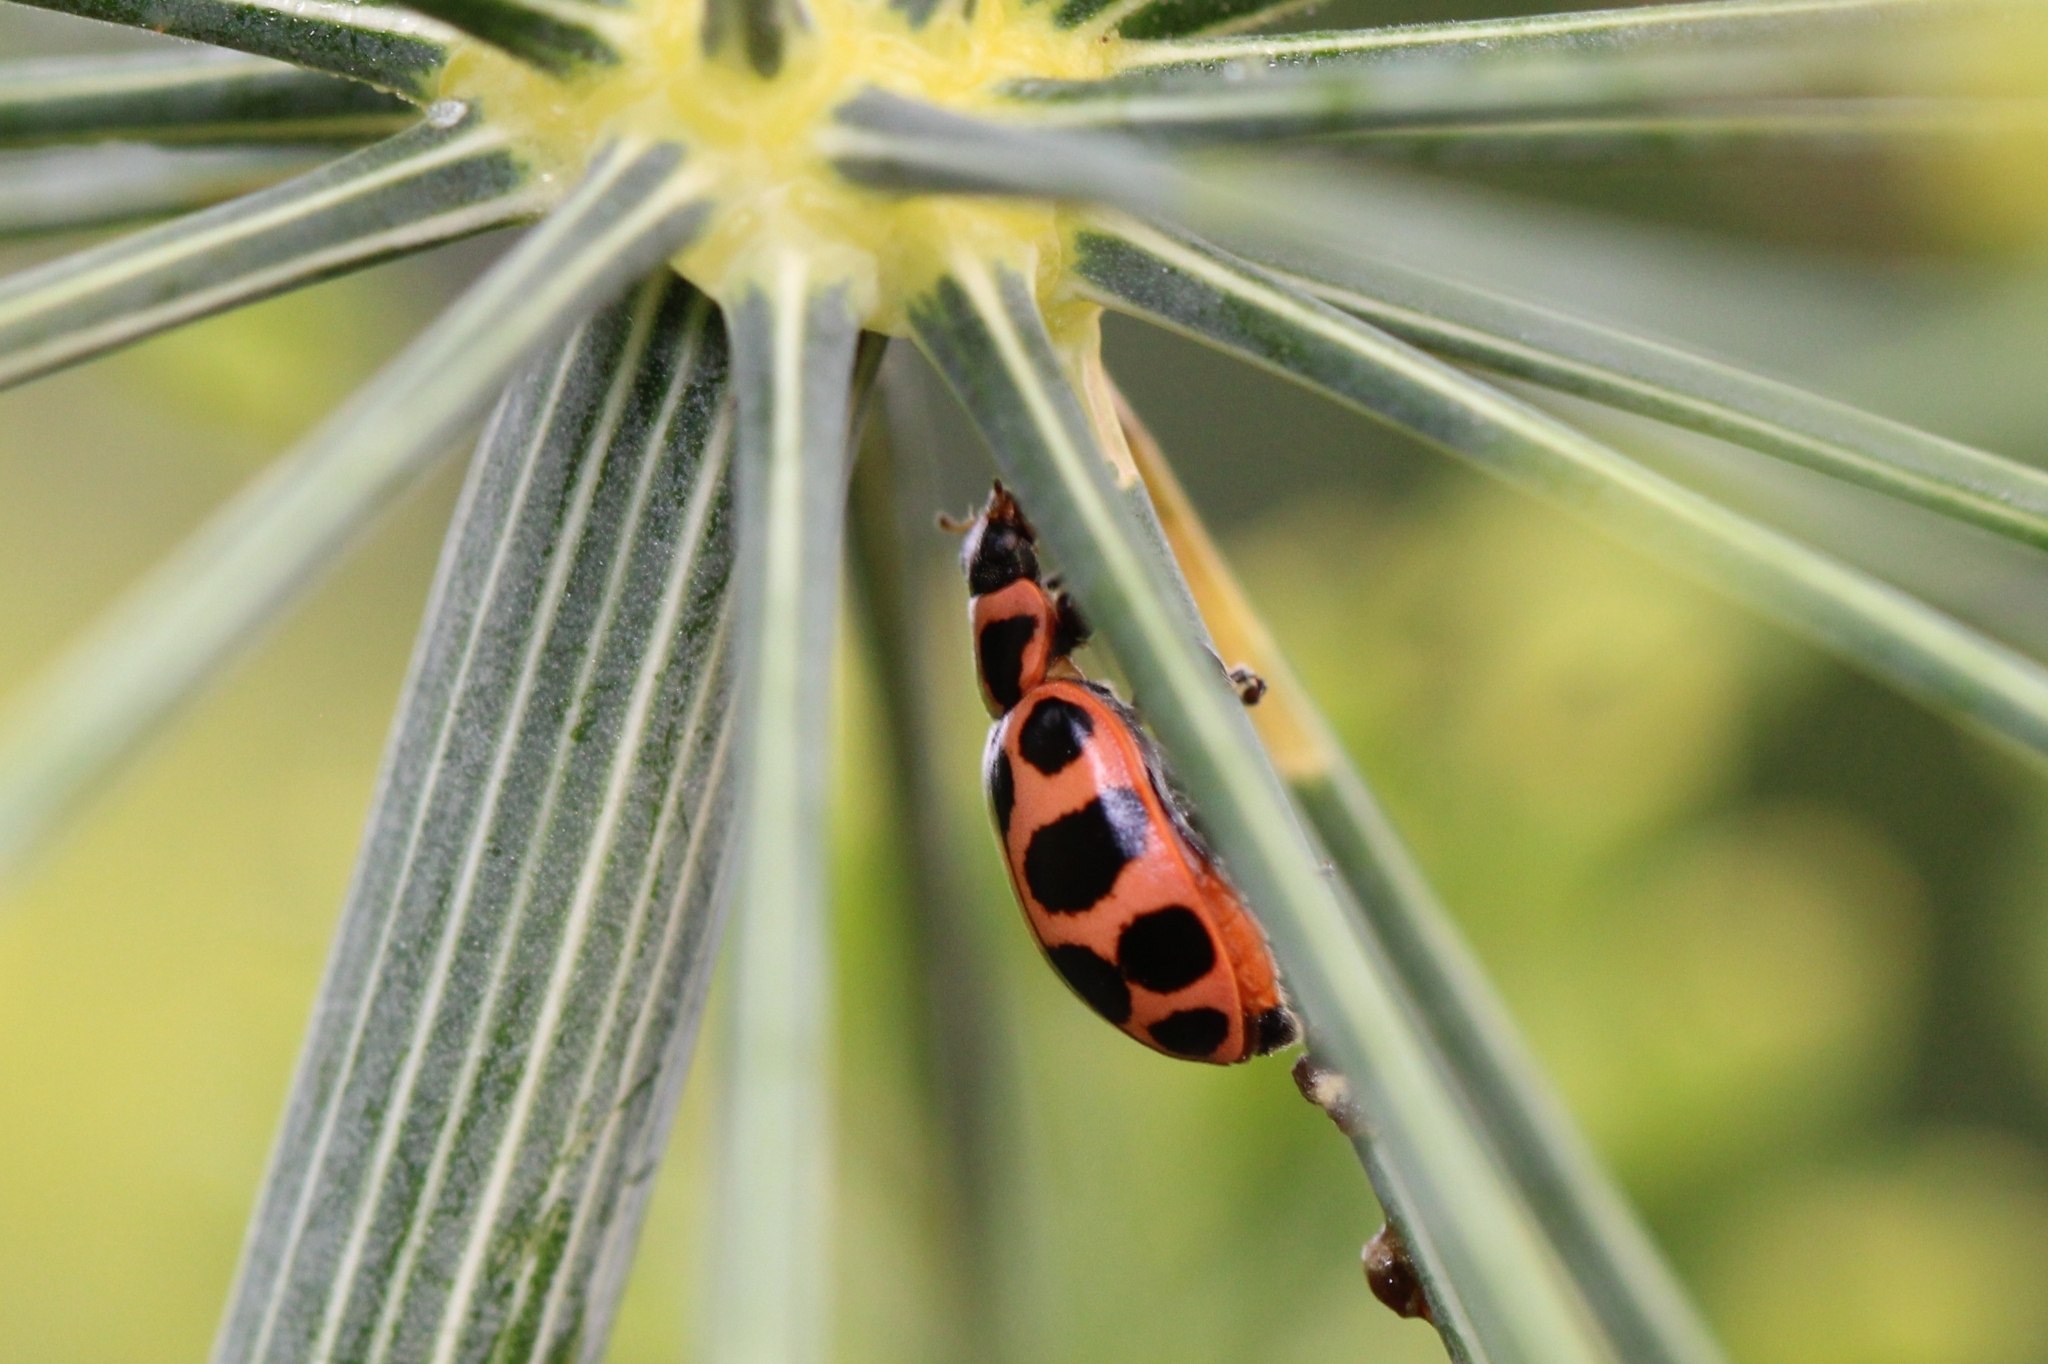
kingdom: Animalia
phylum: Arthropoda
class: Insecta
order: Coleoptera
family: Coccinellidae
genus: Coleomegilla
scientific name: Coleomegilla maculata
